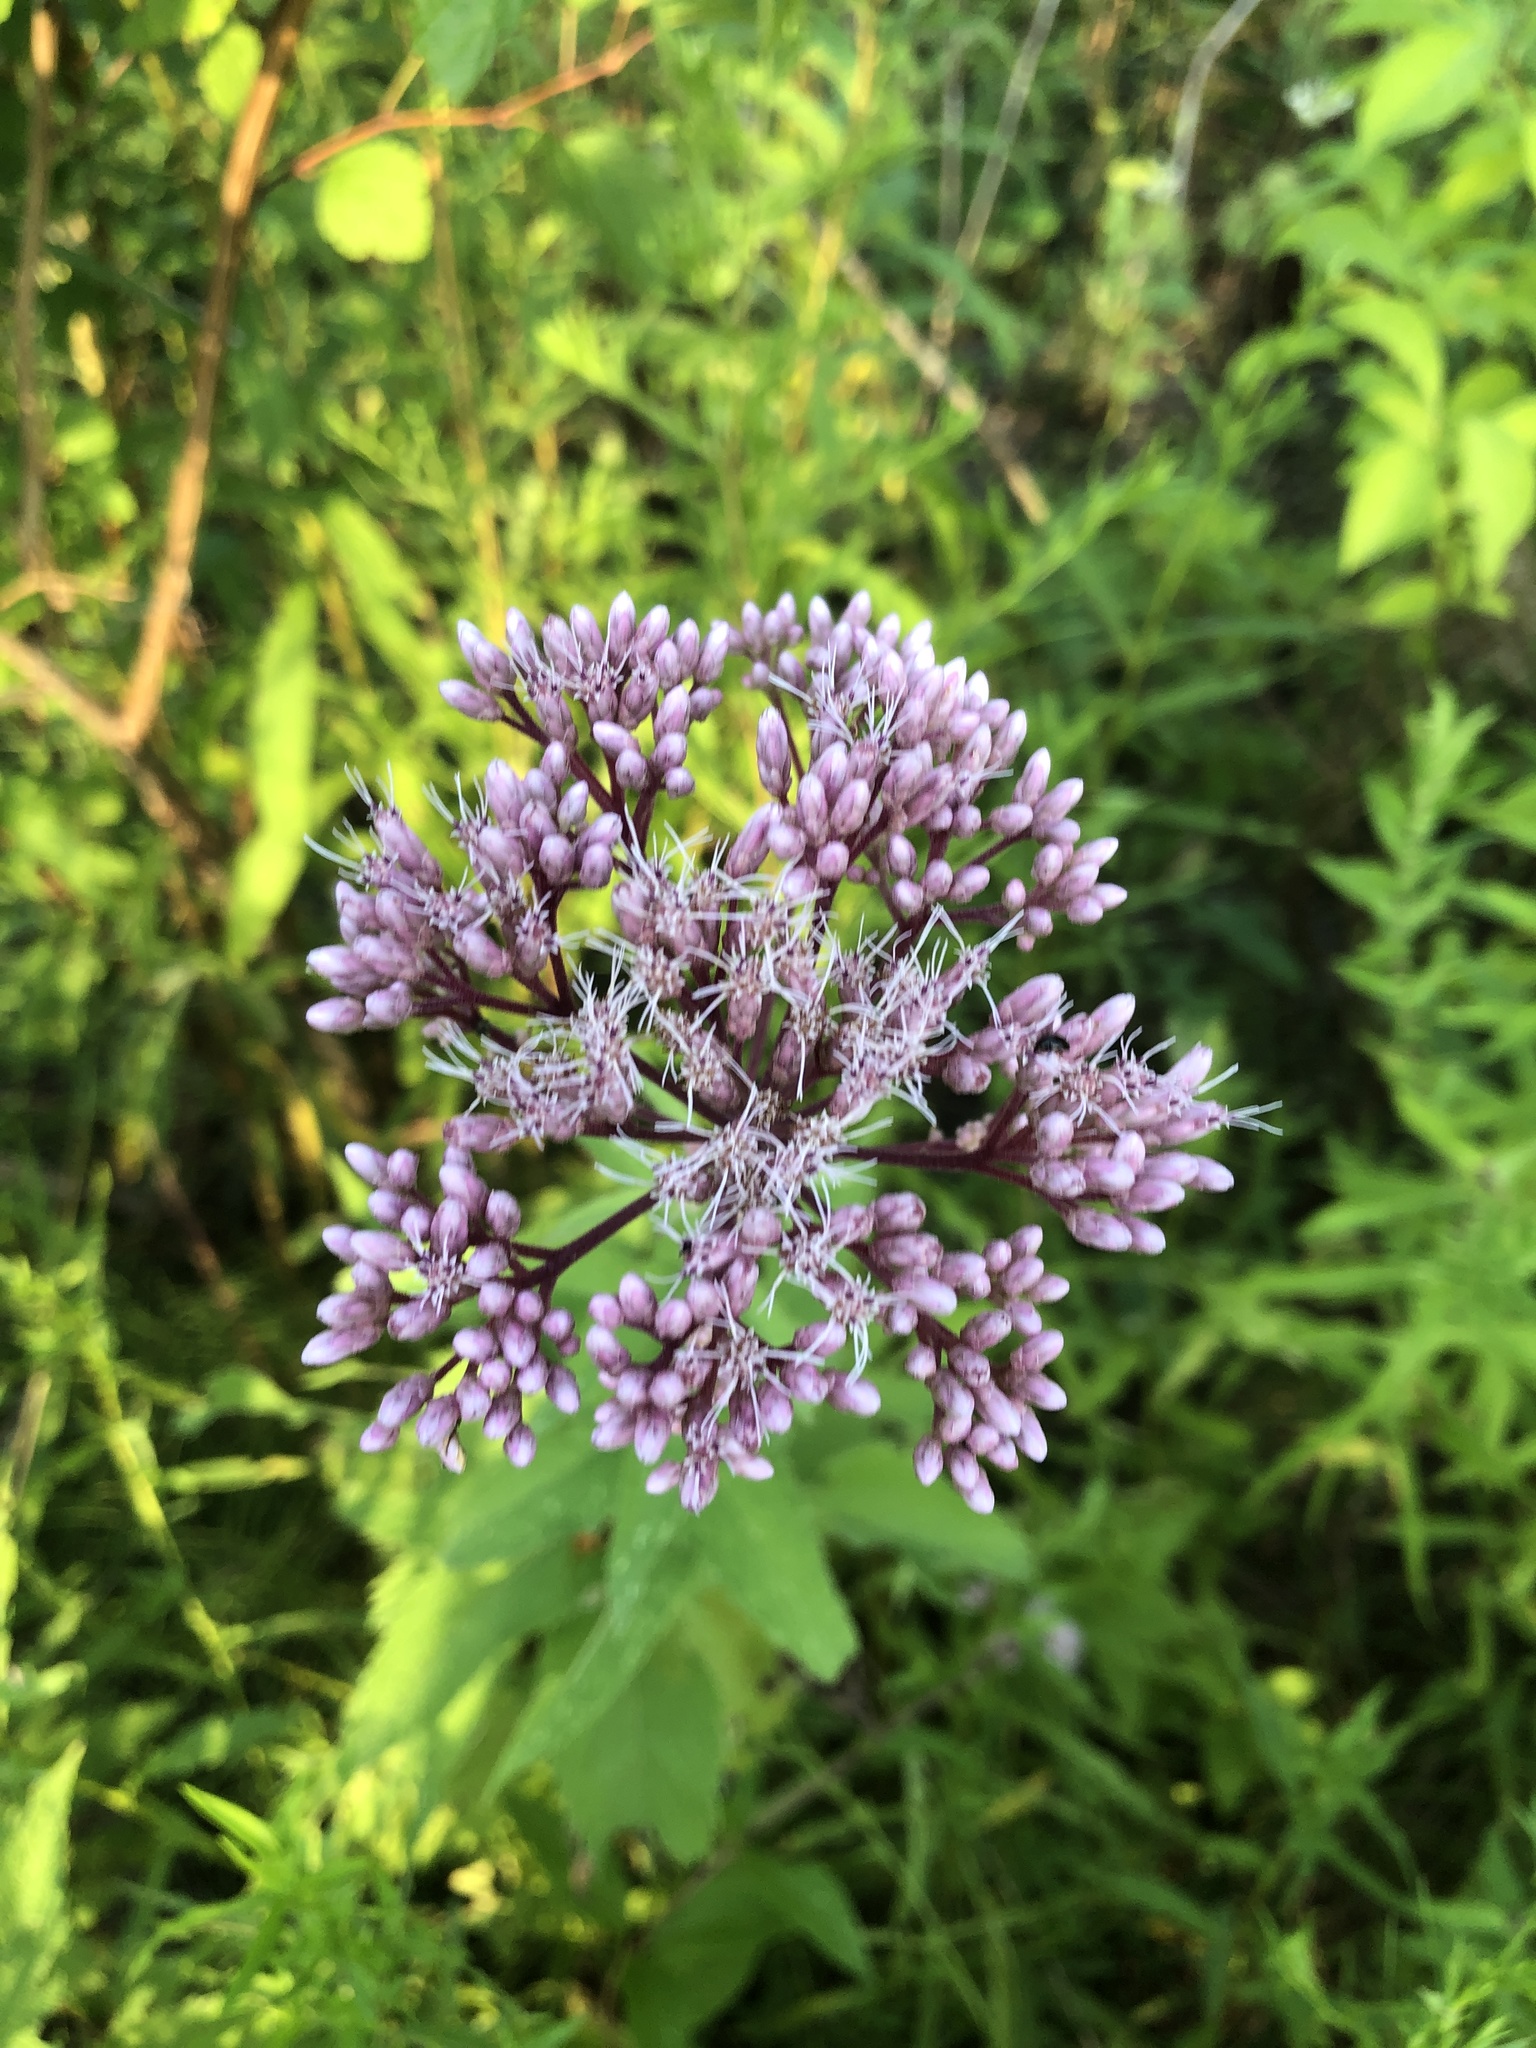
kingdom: Plantae
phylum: Tracheophyta
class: Magnoliopsida
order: Asterales
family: Asteraceae
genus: Eutrochium
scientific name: Eutrochium maculatum
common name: Spotted joe pye weed
